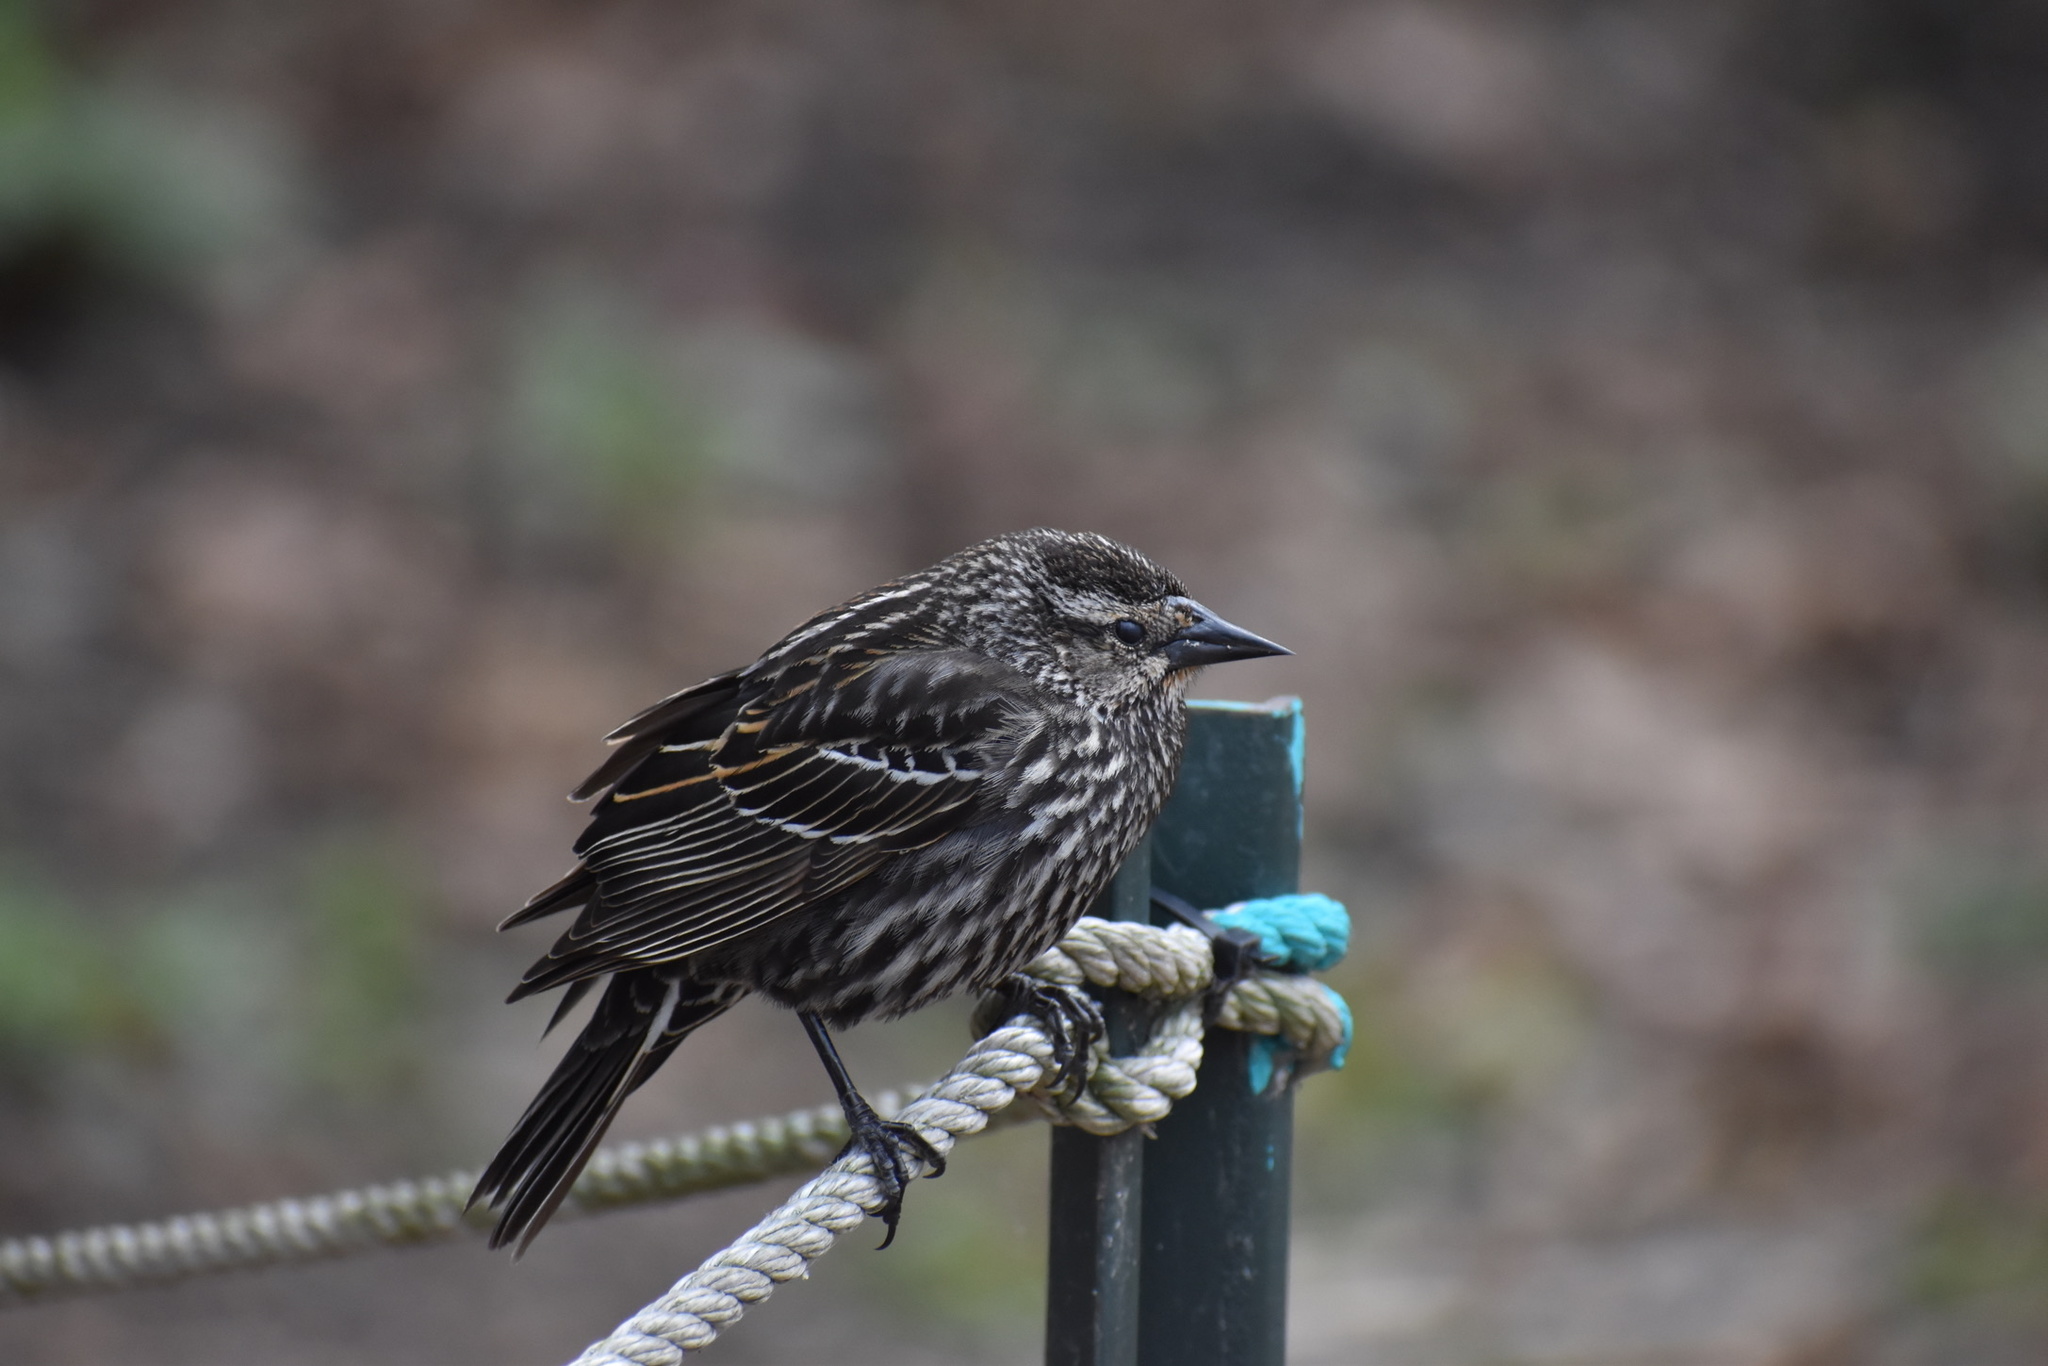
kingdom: Animalia
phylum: Chordata
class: Aves
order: Passeriformes
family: Icteridae
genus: Agelaius
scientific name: Agelaius phoeniceus
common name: Red-winged blackbird
